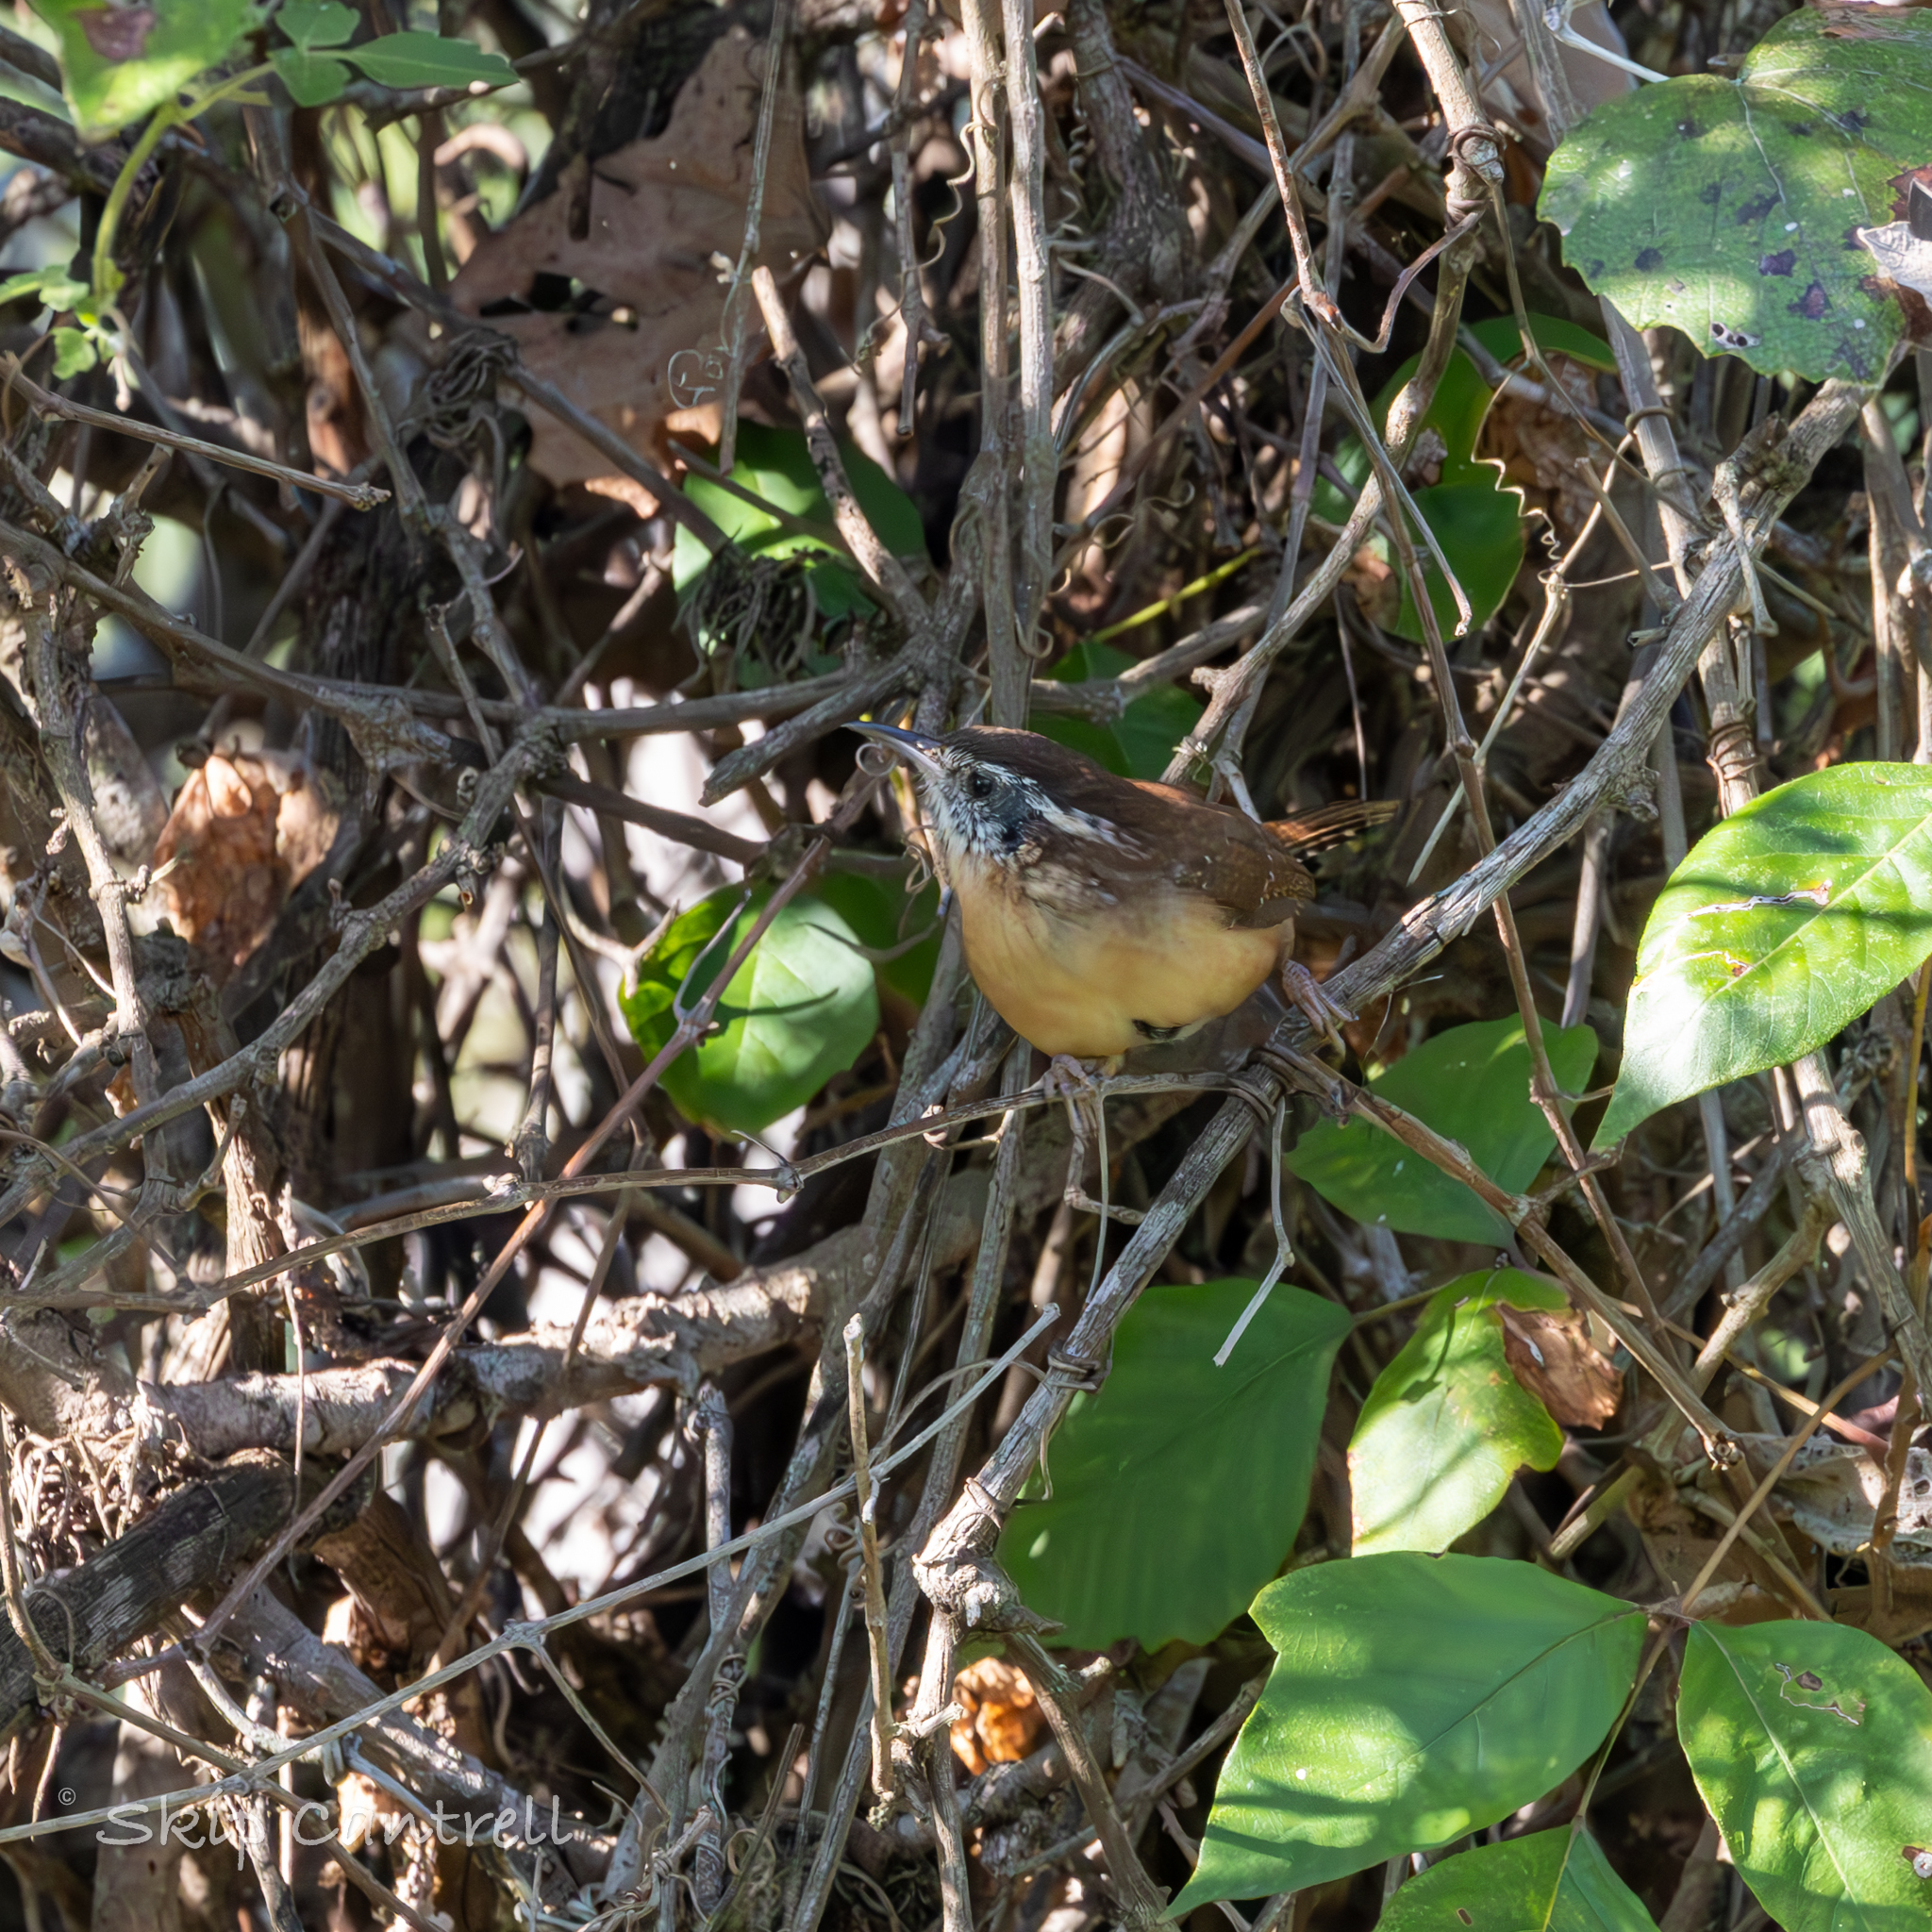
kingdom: Animalia
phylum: Chordata
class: Aves
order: Passeriformes
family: Troglodytidae
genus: Thryothorus
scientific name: Thryothorus ludovicianus
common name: Carolina wren
